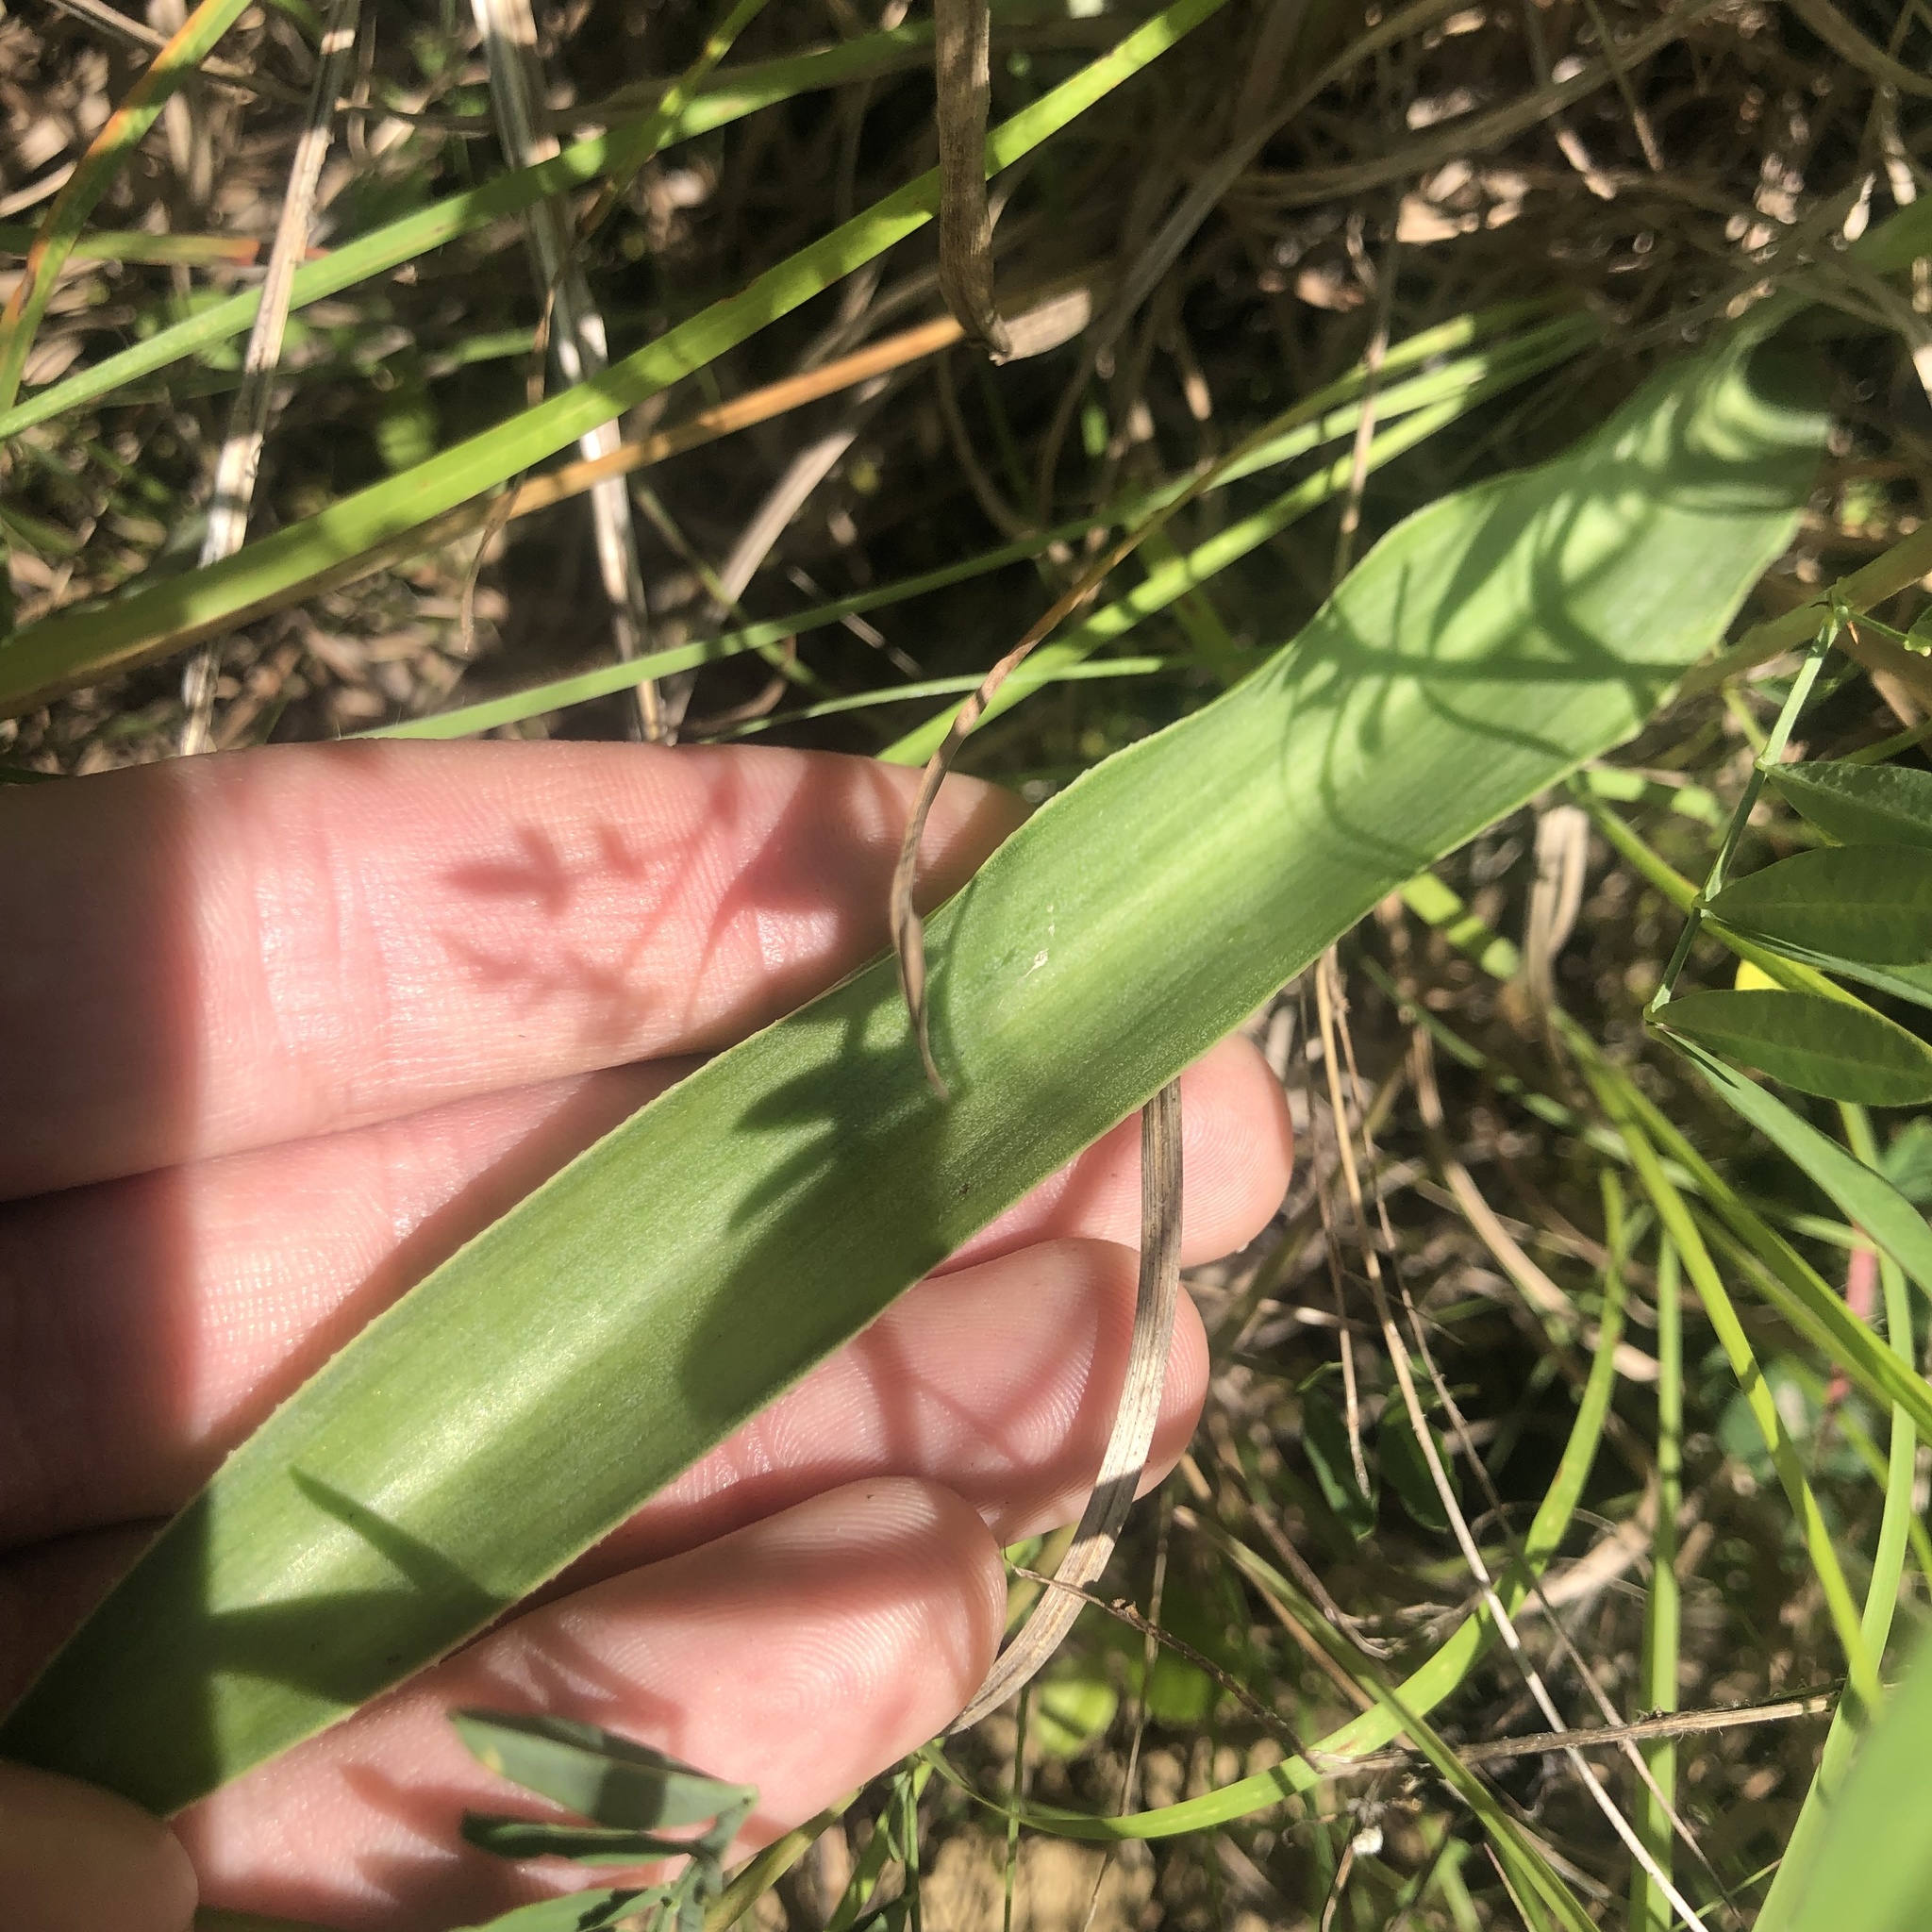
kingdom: Plantae
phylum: Tracheophyta
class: Liliopsida
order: Asparagales
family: Asparagaceae
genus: Agave
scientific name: Agave virginica
